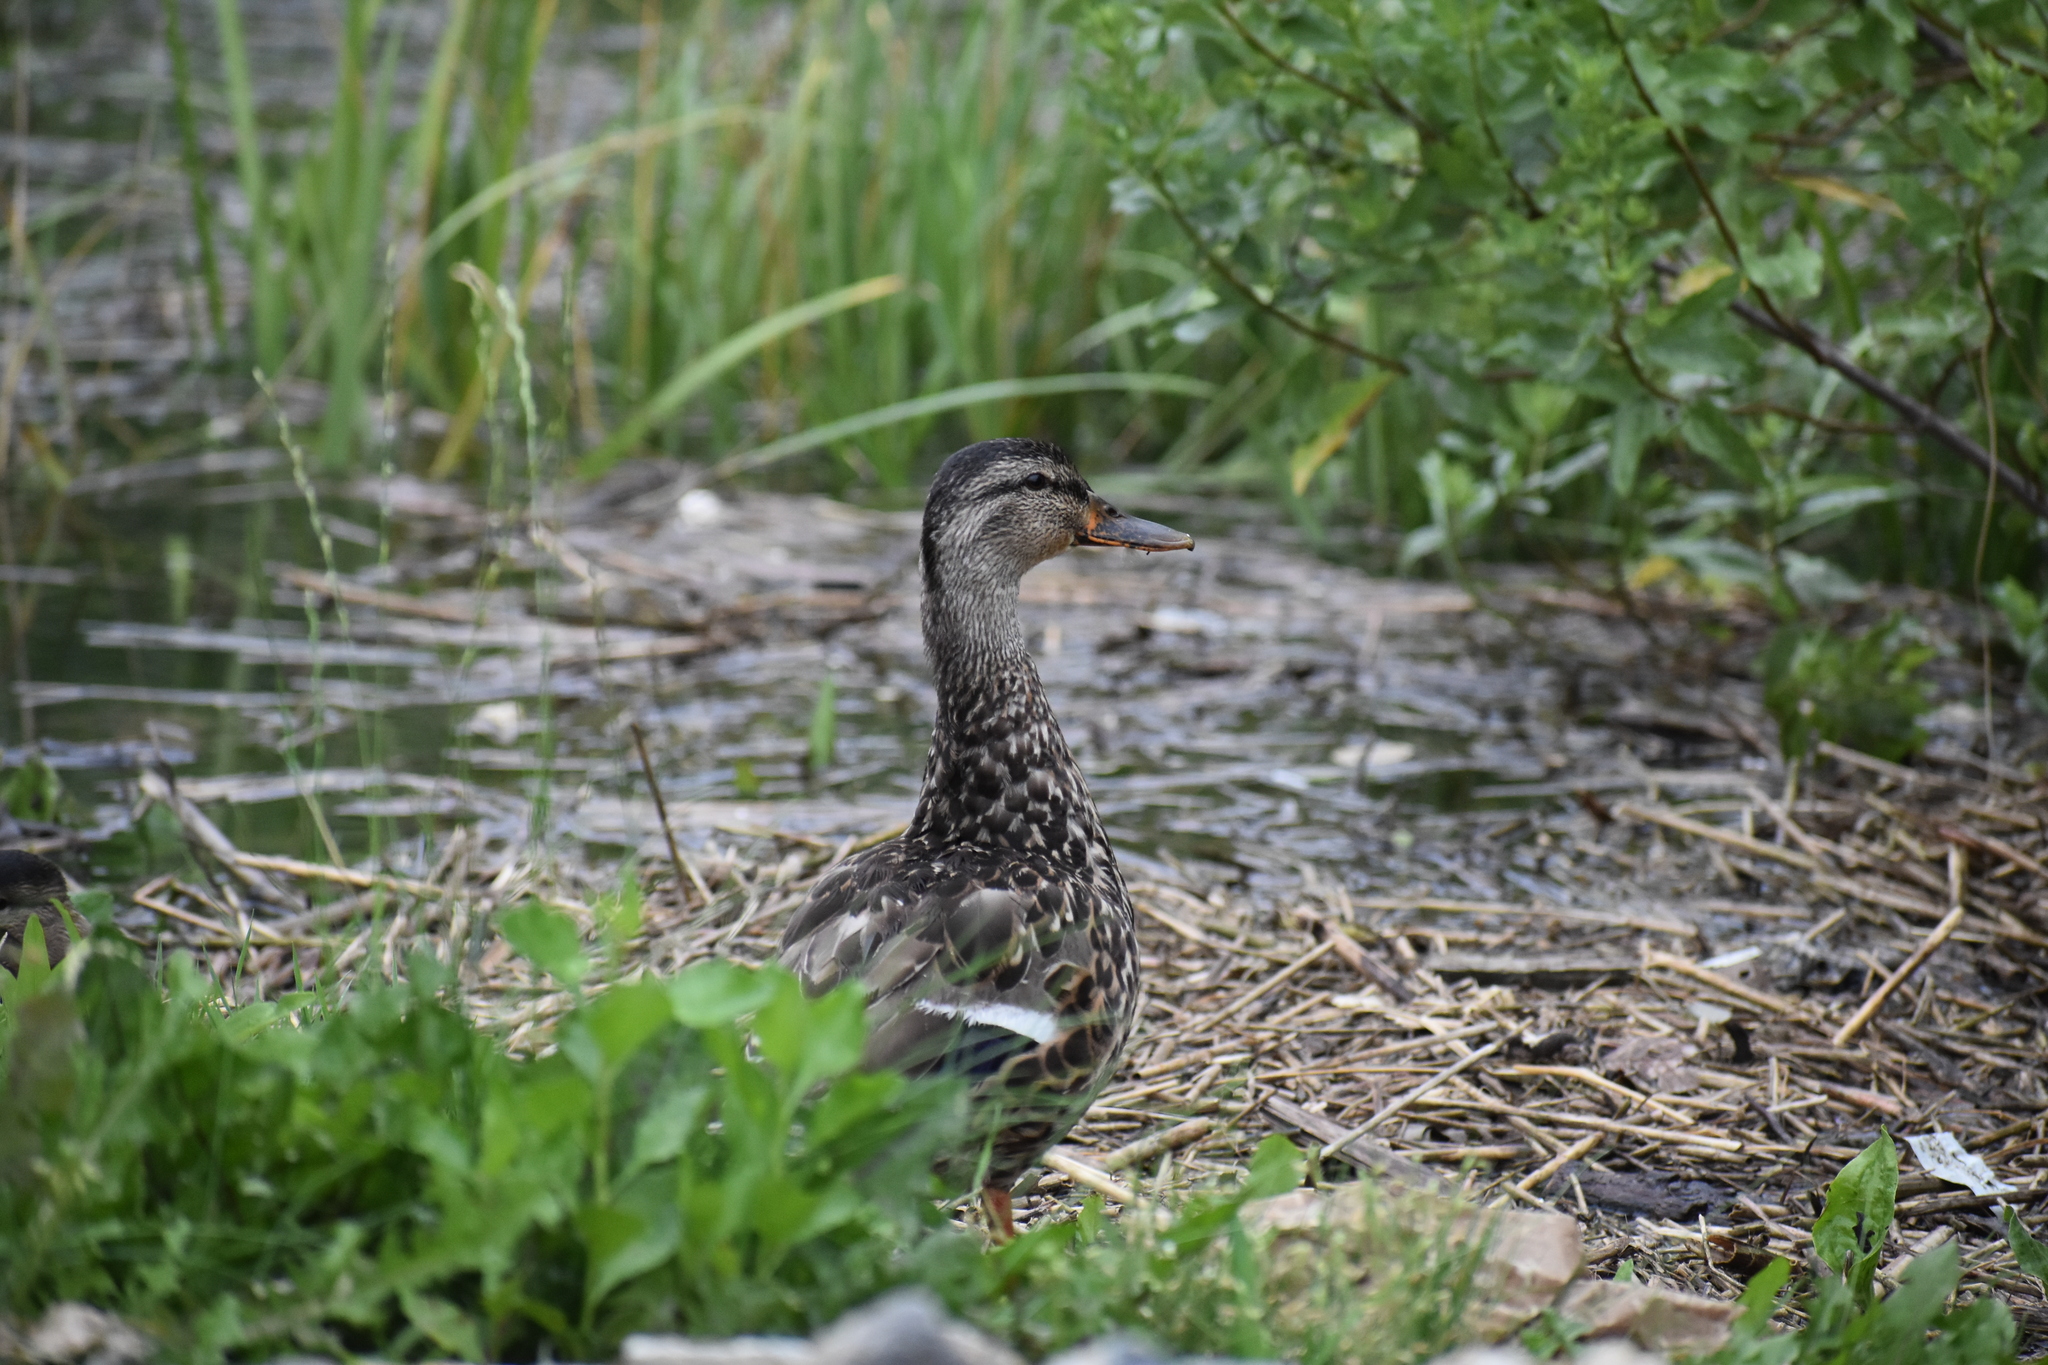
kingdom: Animalia
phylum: Chordata
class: Aves
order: Anseriformes
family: Anatidae
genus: Anas
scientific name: Anas platyrhynchos
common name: Mallard
